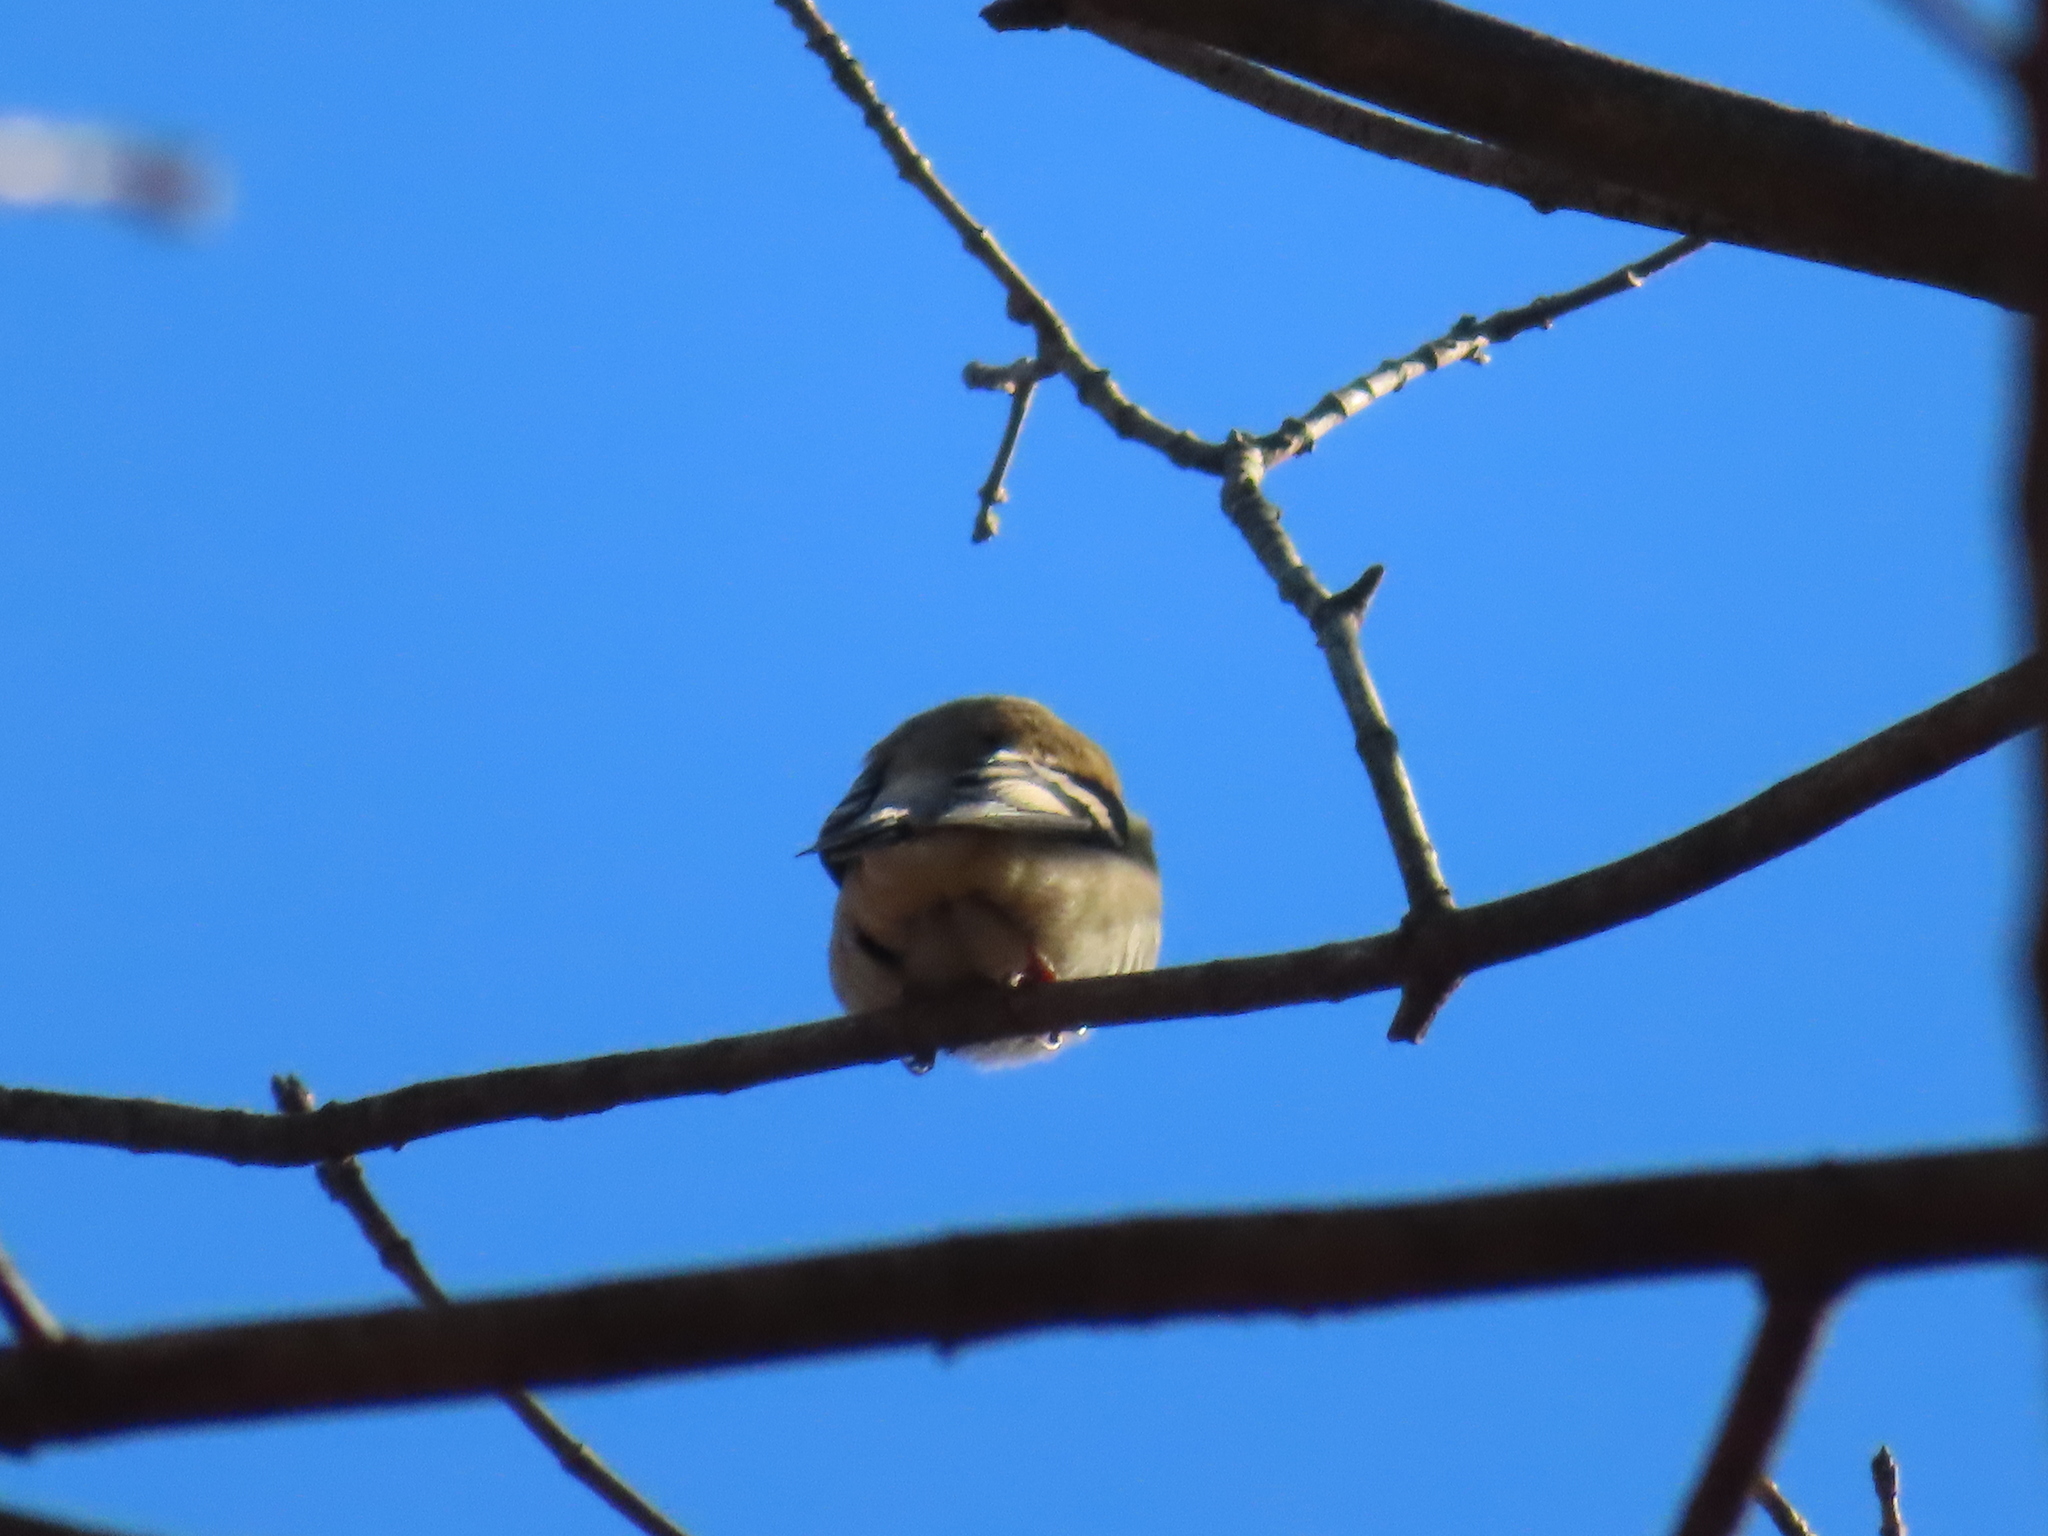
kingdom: Animalia
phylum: Chordata
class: Aves
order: Passeriformes
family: Fringillidae
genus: Spinus
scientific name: Spinus tristis
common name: American goldfinch
